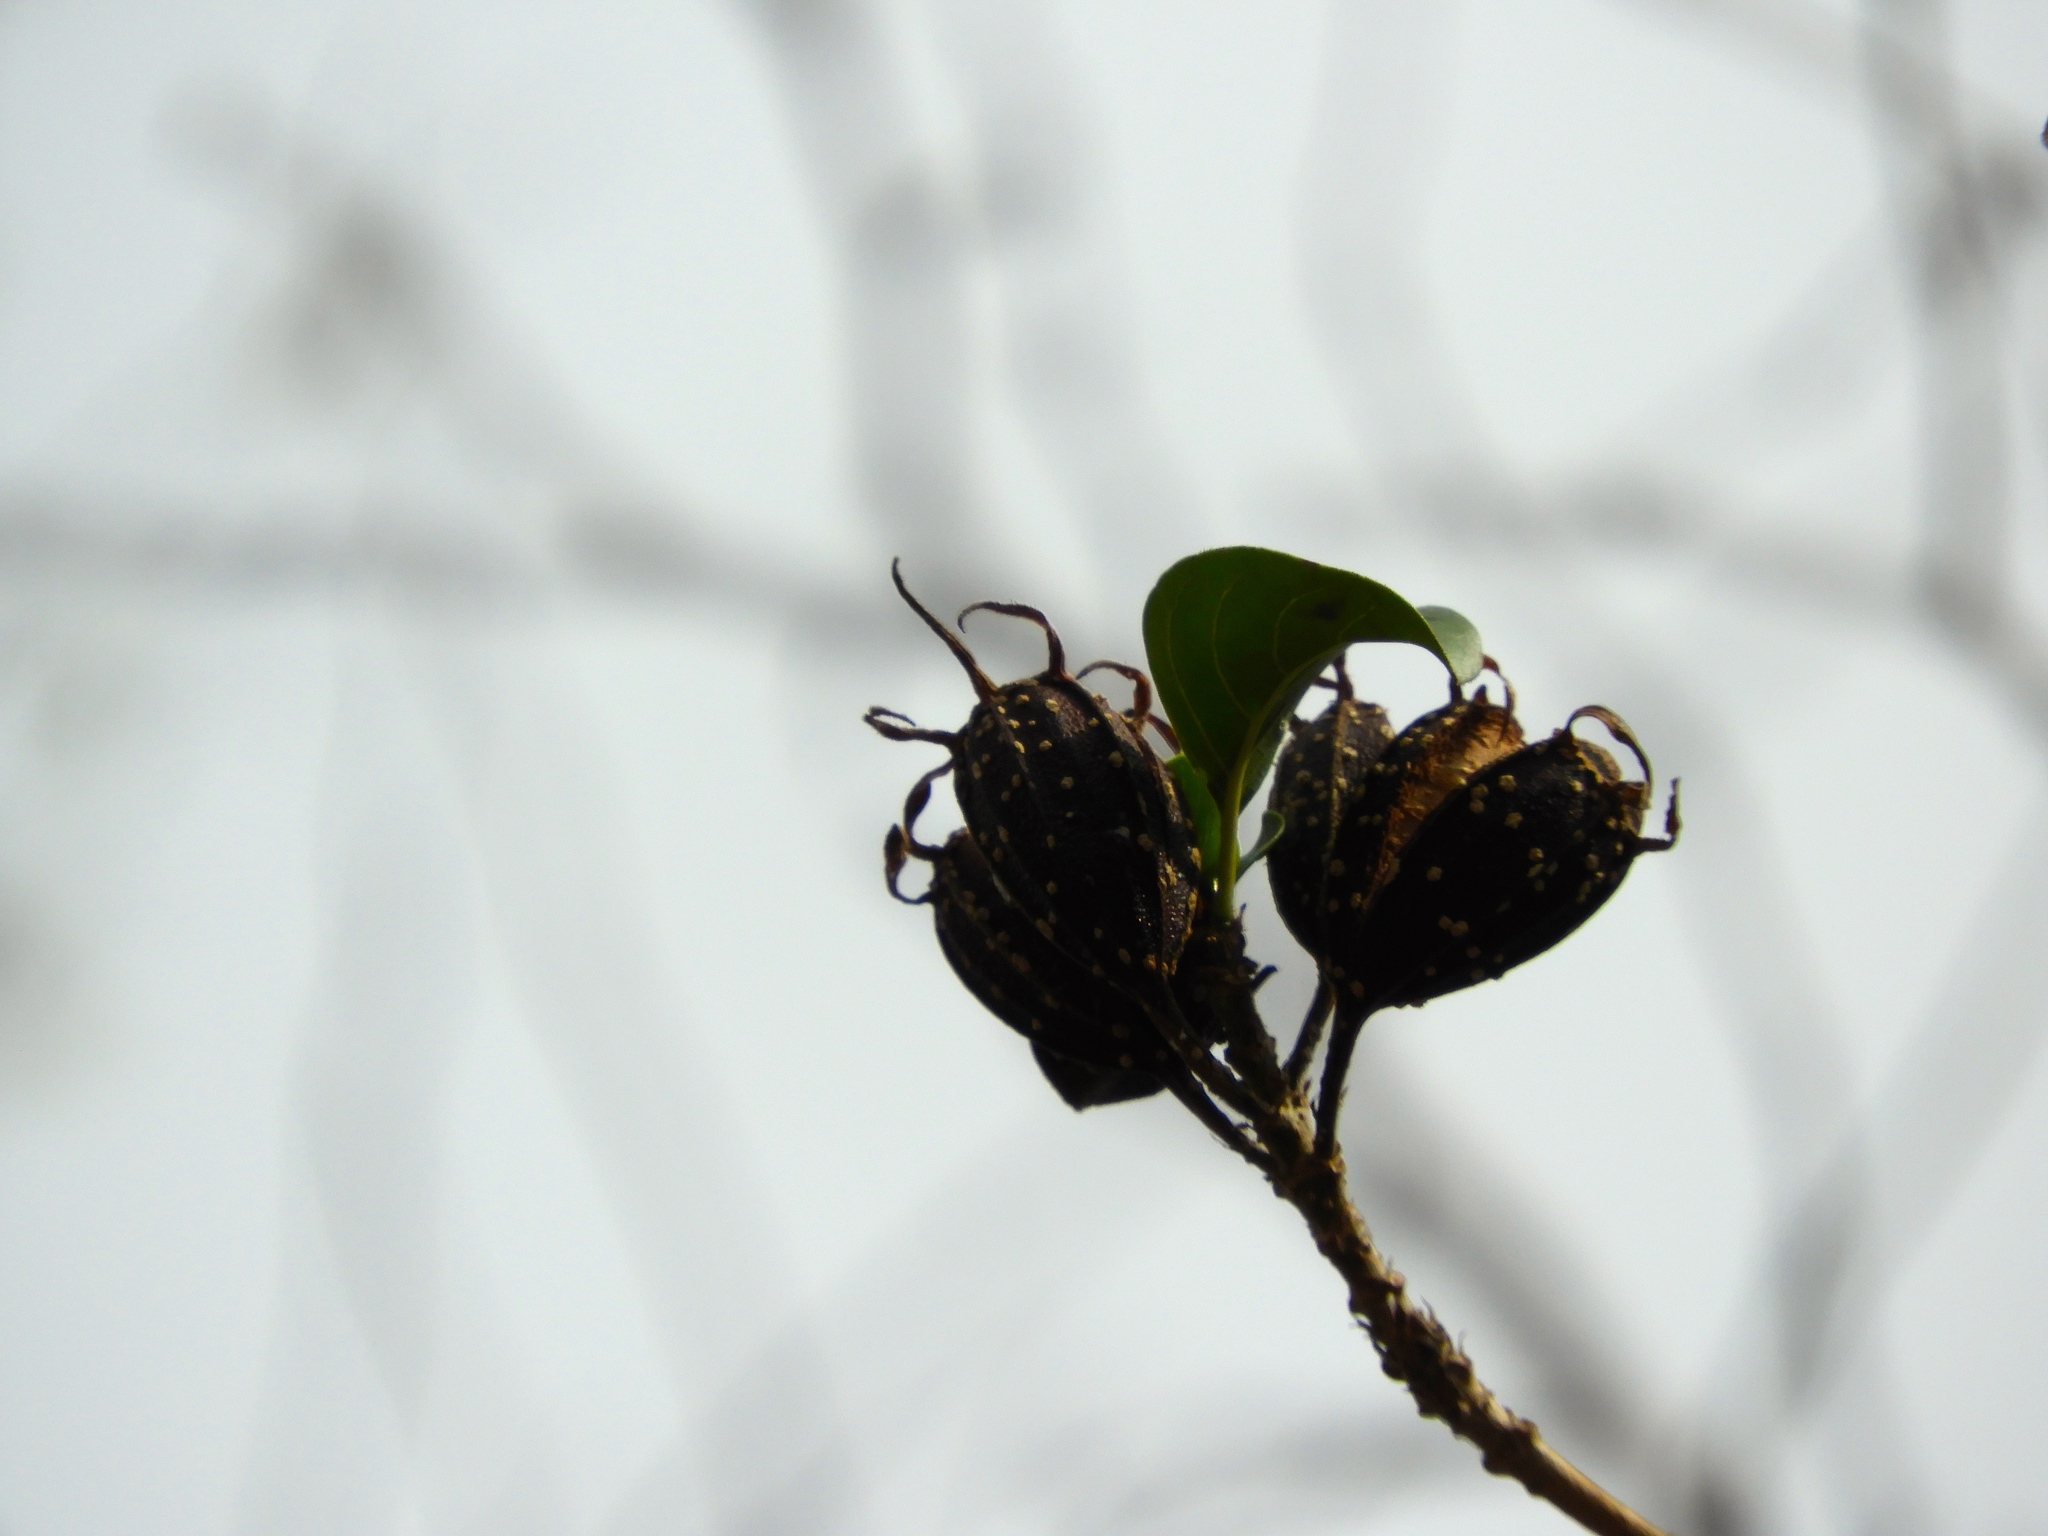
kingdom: Plantae
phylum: Tracheophyta
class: Magnoliopsida
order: Gentianales
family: Rubiaceae
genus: Hintonia
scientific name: Hintonia latiflora
